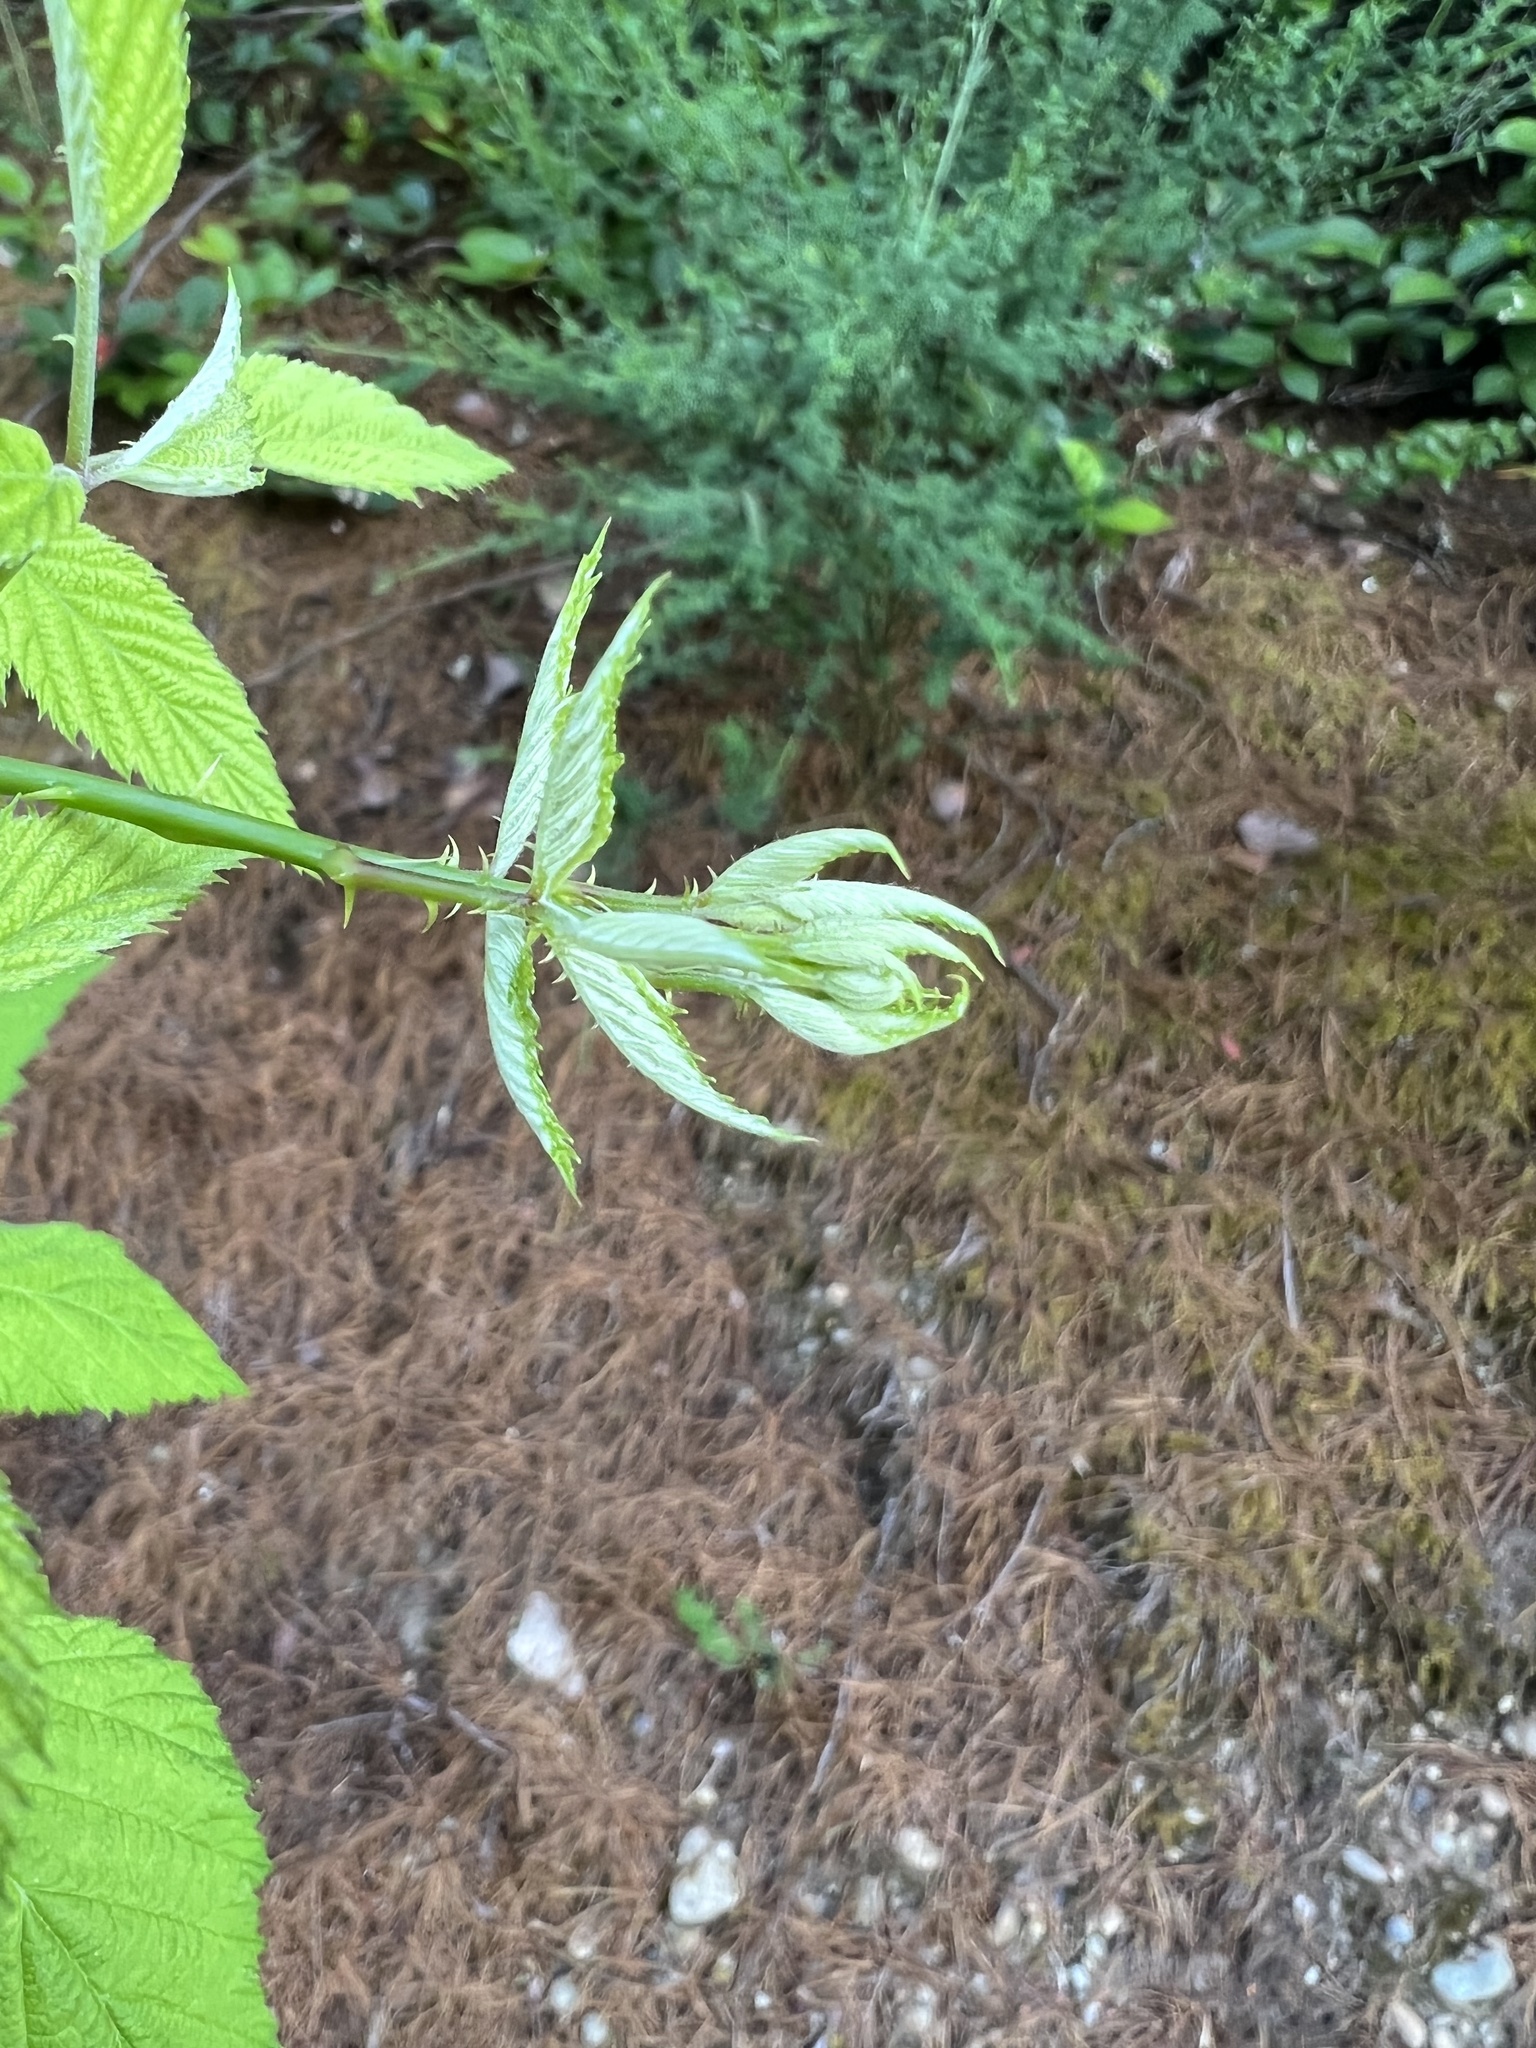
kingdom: Plantae
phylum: Tracheophyta
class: Magnoliopsida
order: Rosales
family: Rosaceae
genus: Rubus
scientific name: Rubus leucodermis
